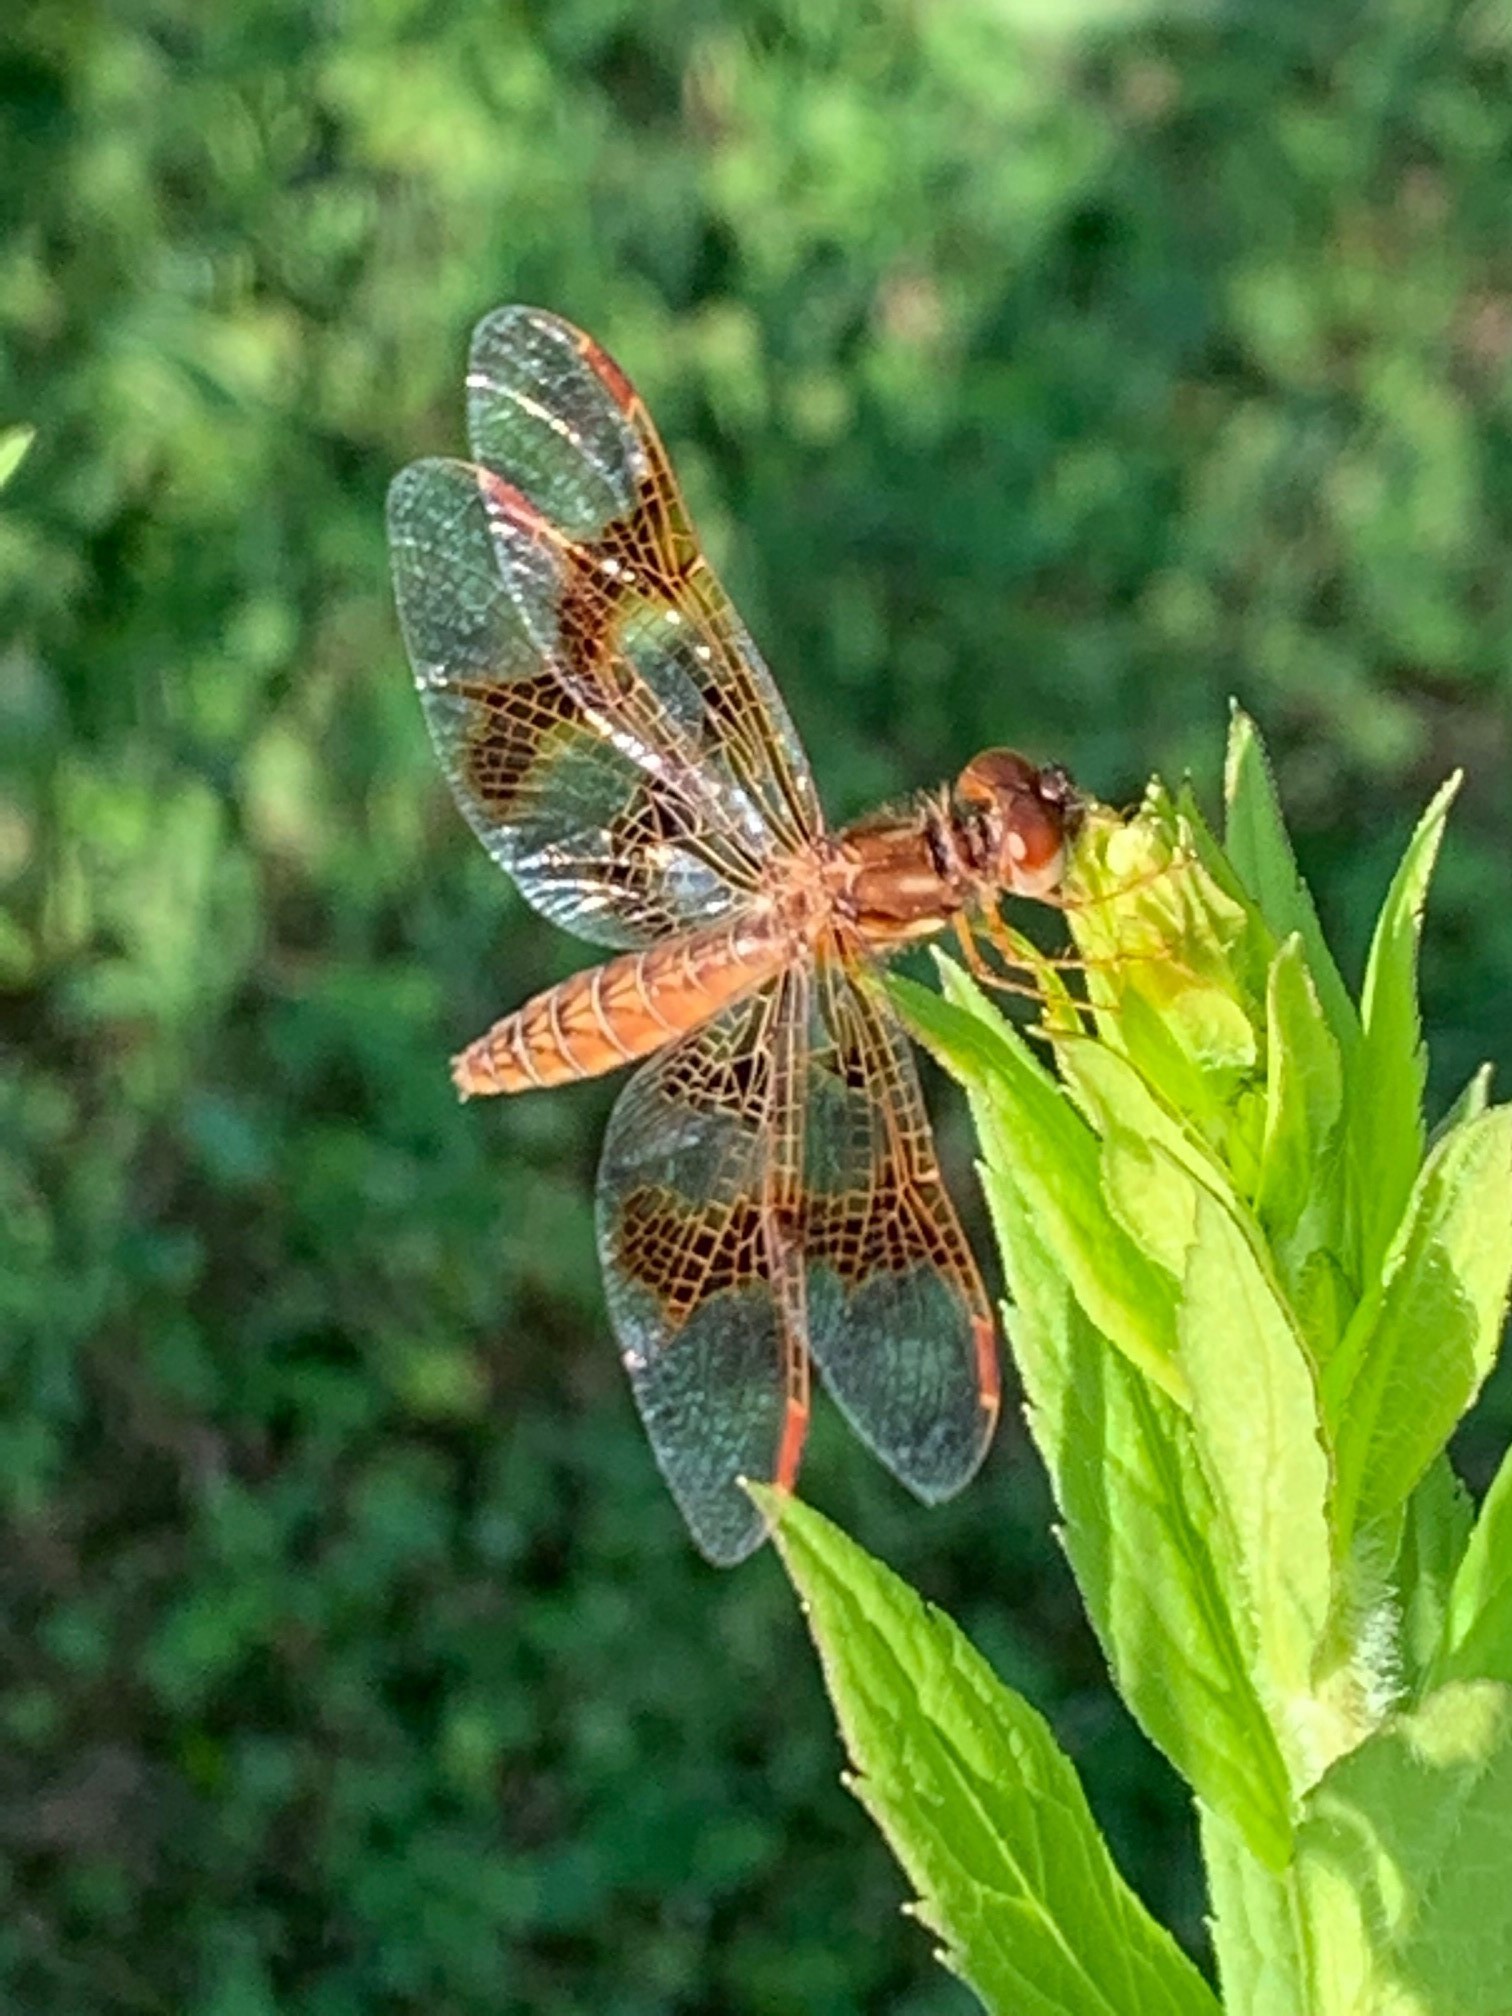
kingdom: Animalia
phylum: Arthropoda
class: Insecta
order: Odonata
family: Libellulidae
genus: Perithemis
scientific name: Perithemis tenera
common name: Eastern amberwing
